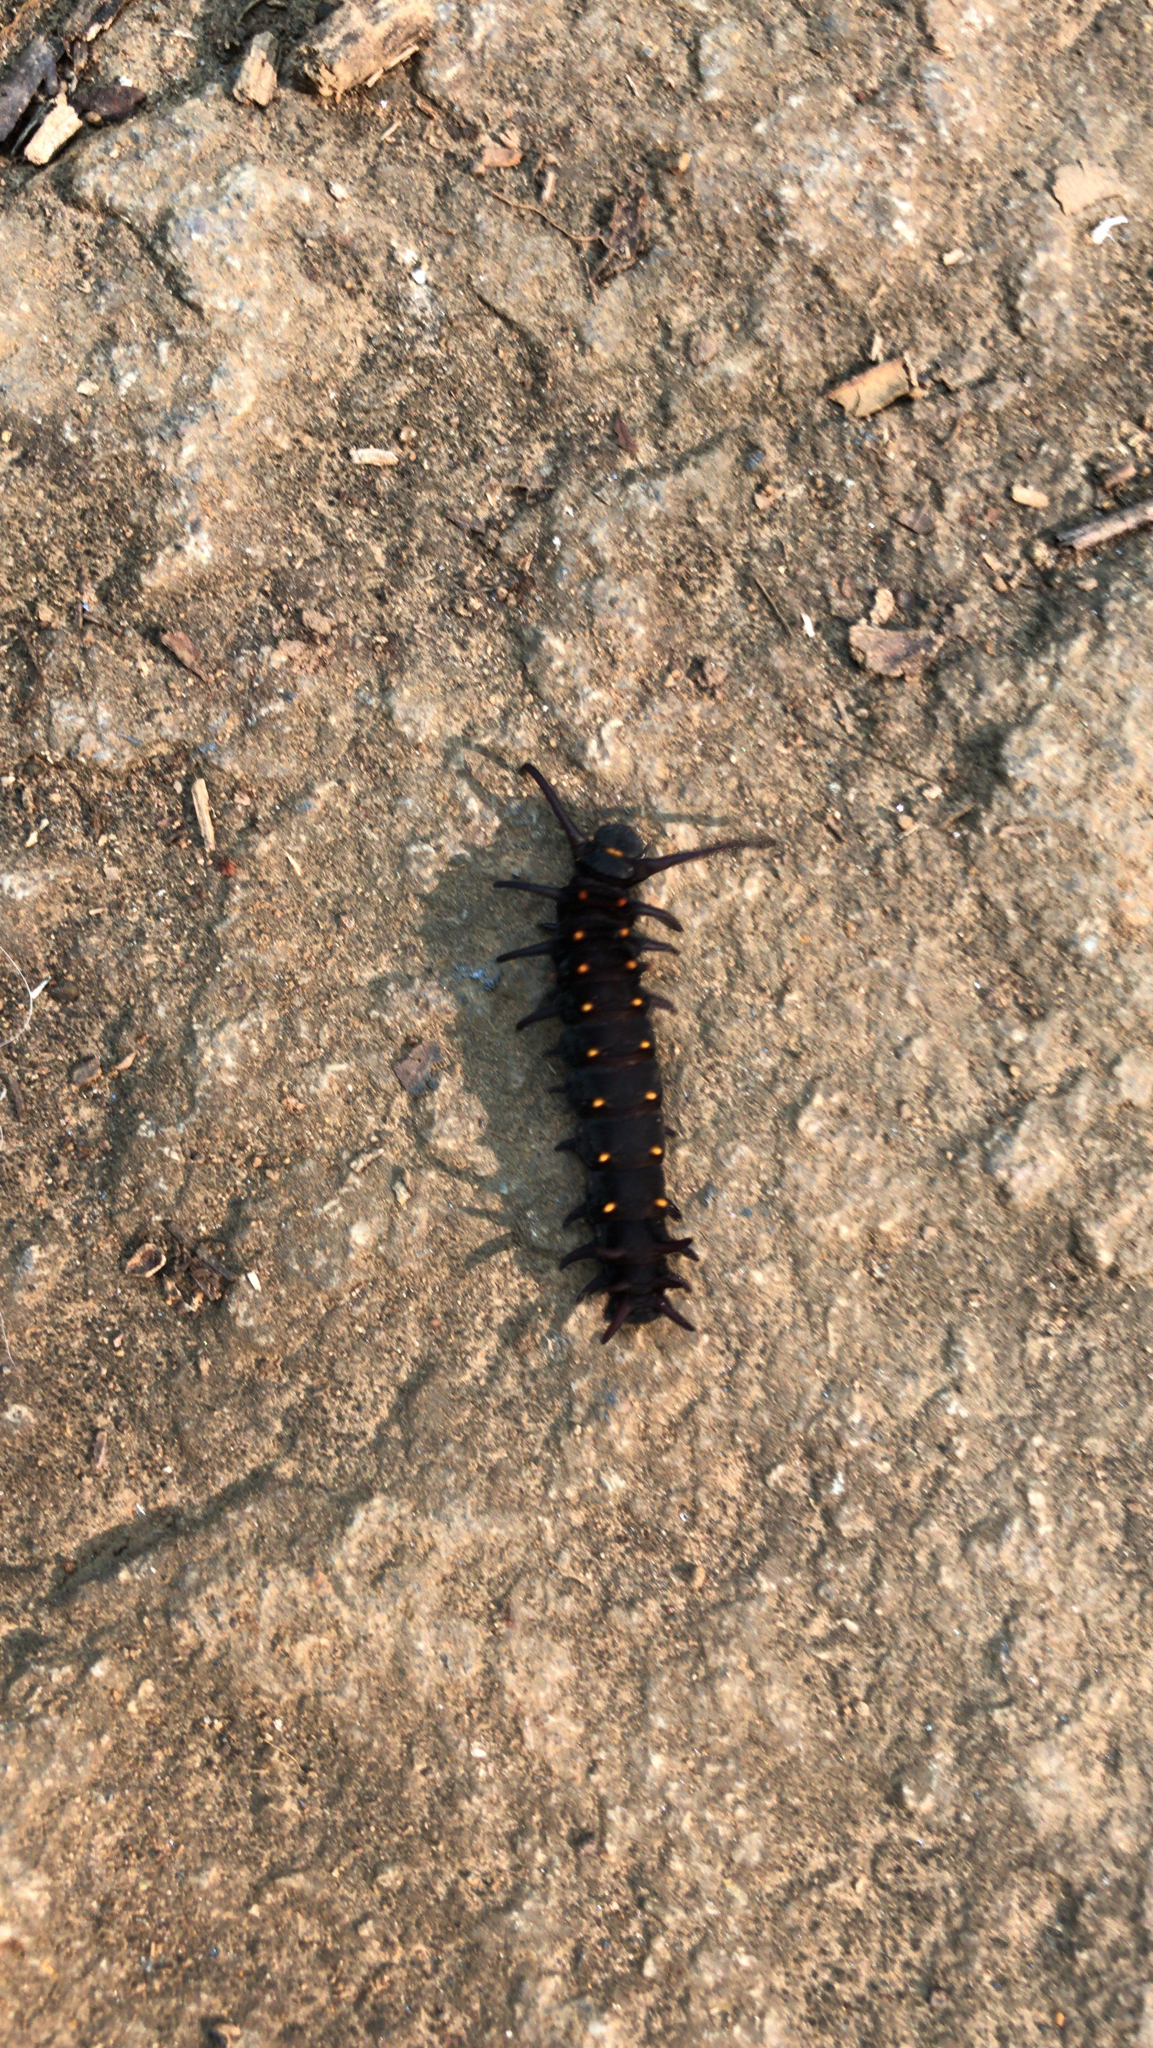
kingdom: Animalia
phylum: Arthropoda
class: Insecta
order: Lepidoptera
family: Papilionidae
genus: Battus
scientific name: Battus philenor
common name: Pipevine swallowtail
